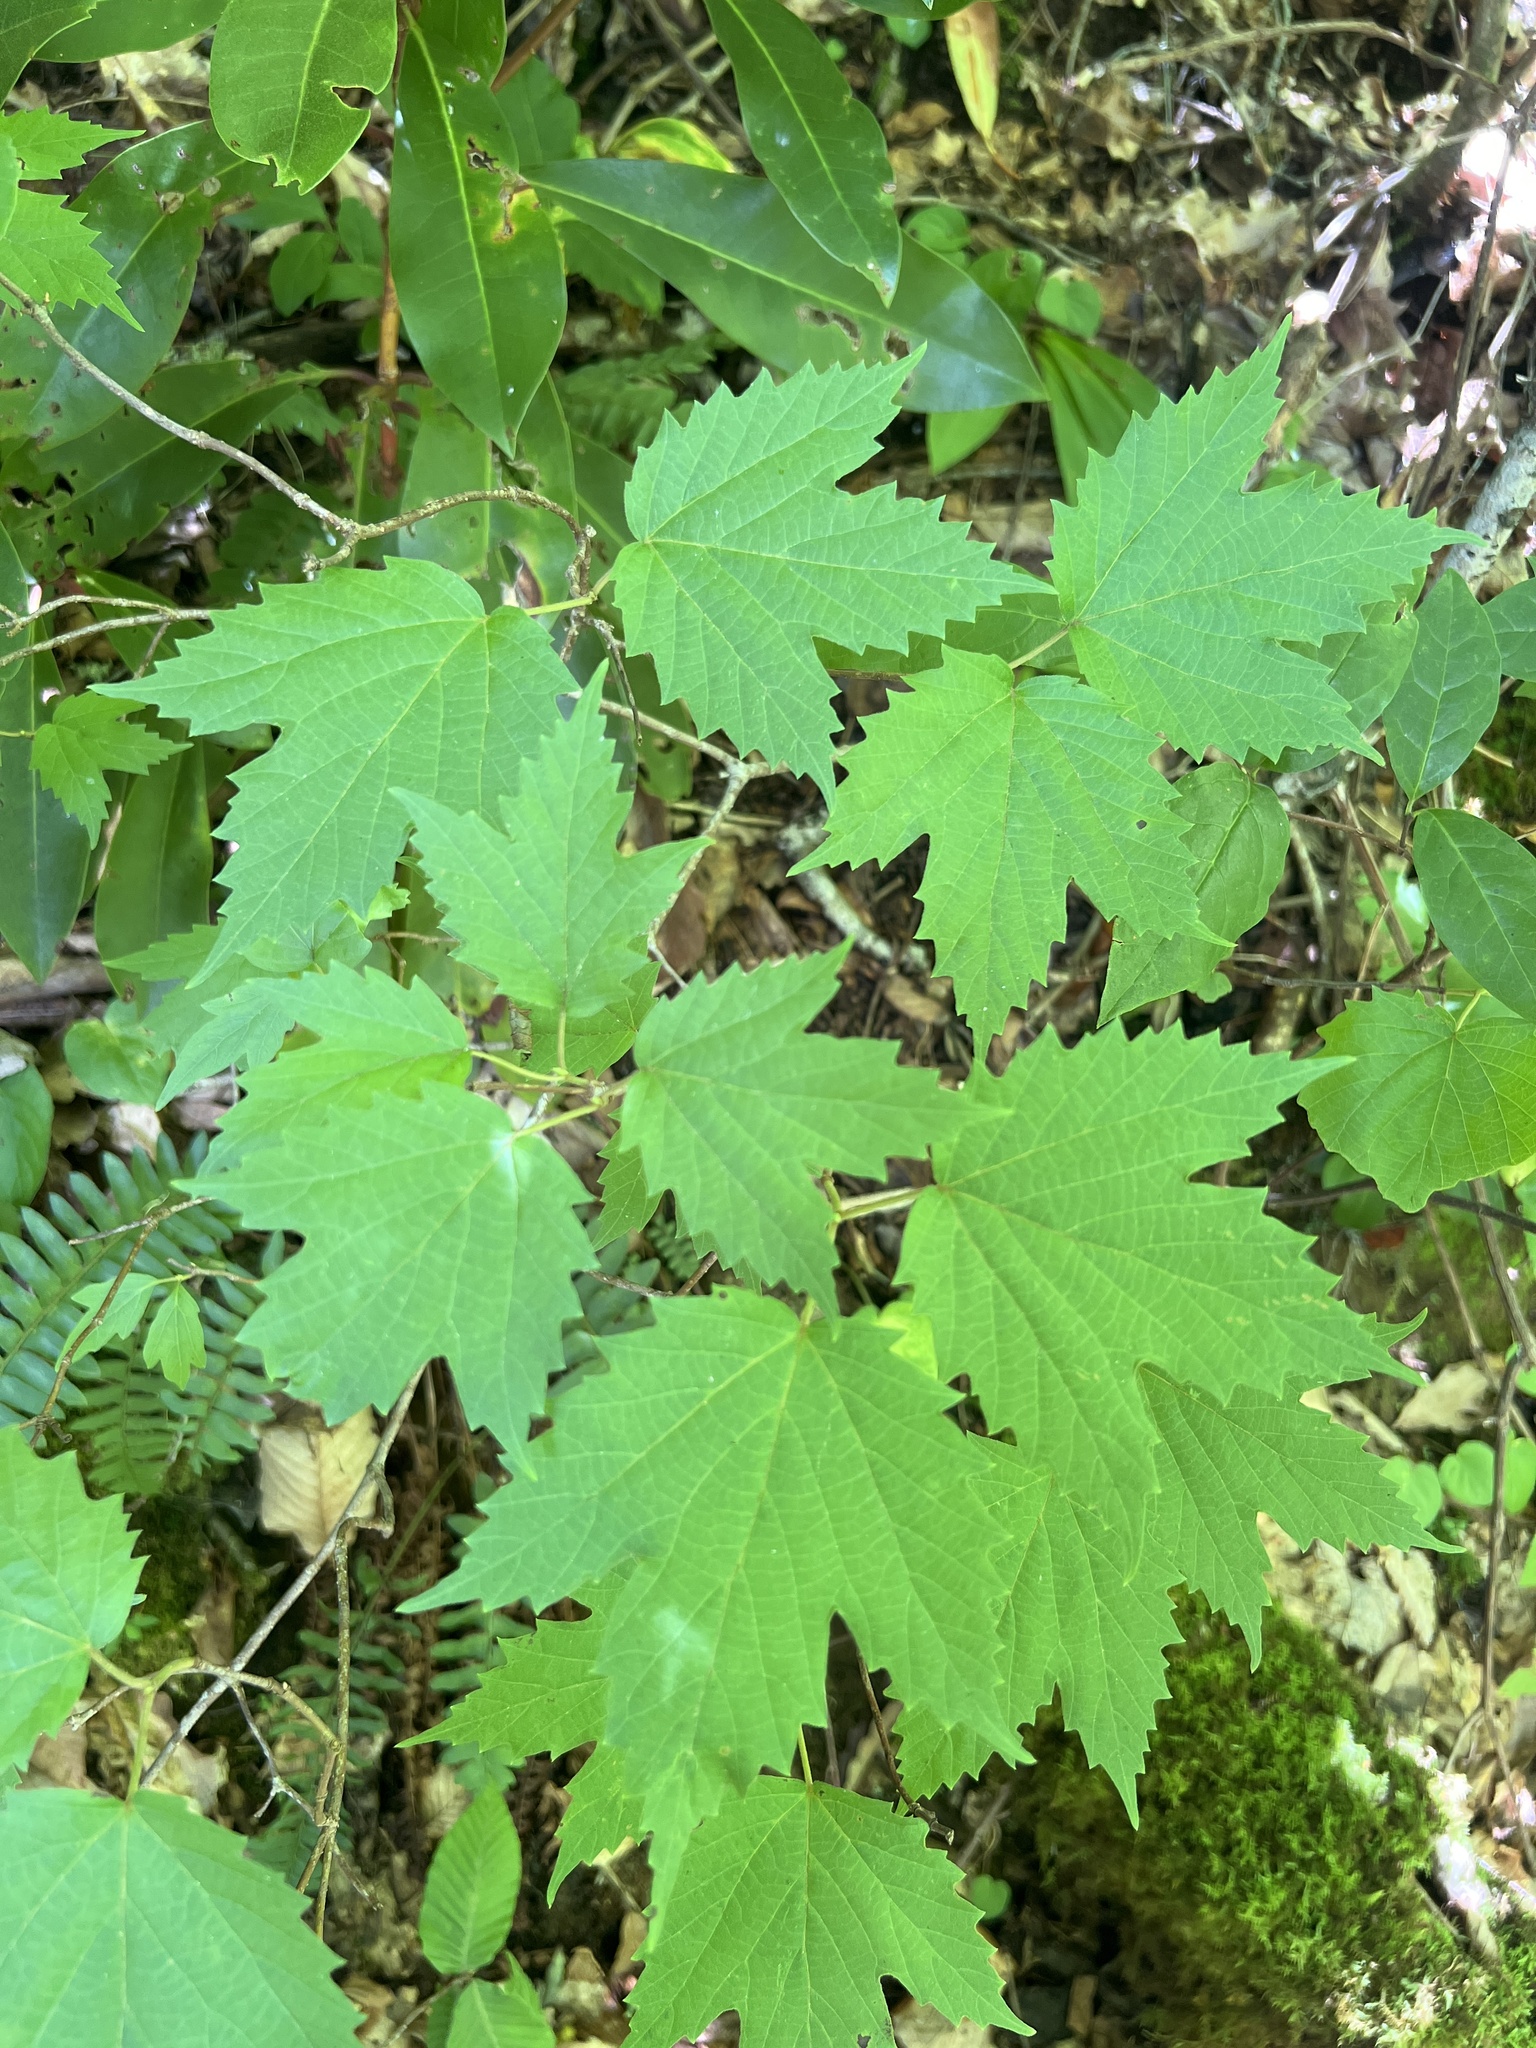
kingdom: Plantae
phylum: Tracheophyta
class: Magnoliopsida
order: Dipsacales
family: Viburnaceae
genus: Viburnum
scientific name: Viburnum acerifolium
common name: Dockmackie
